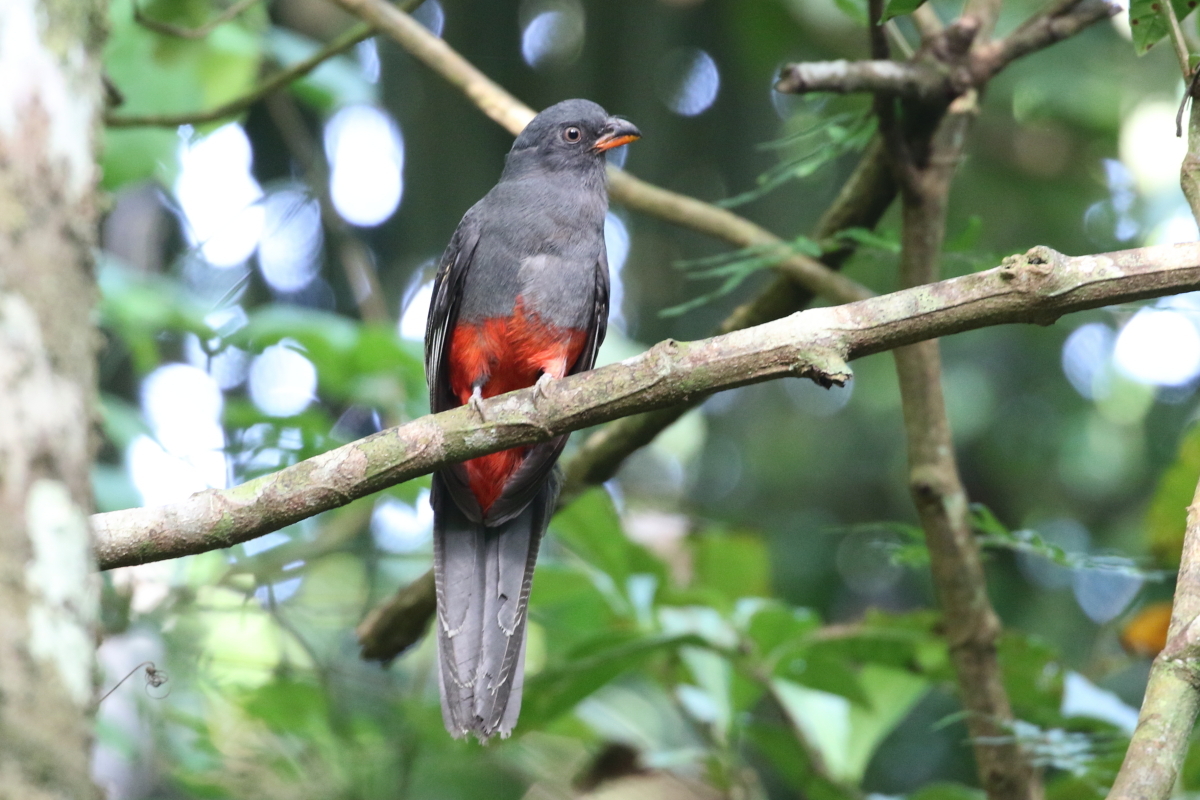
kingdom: Animalia
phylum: Chordata
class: Aves
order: Trogoniformes
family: Trogonidae
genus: Trogon
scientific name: Trogon massena
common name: Slaty-tailed trogon
